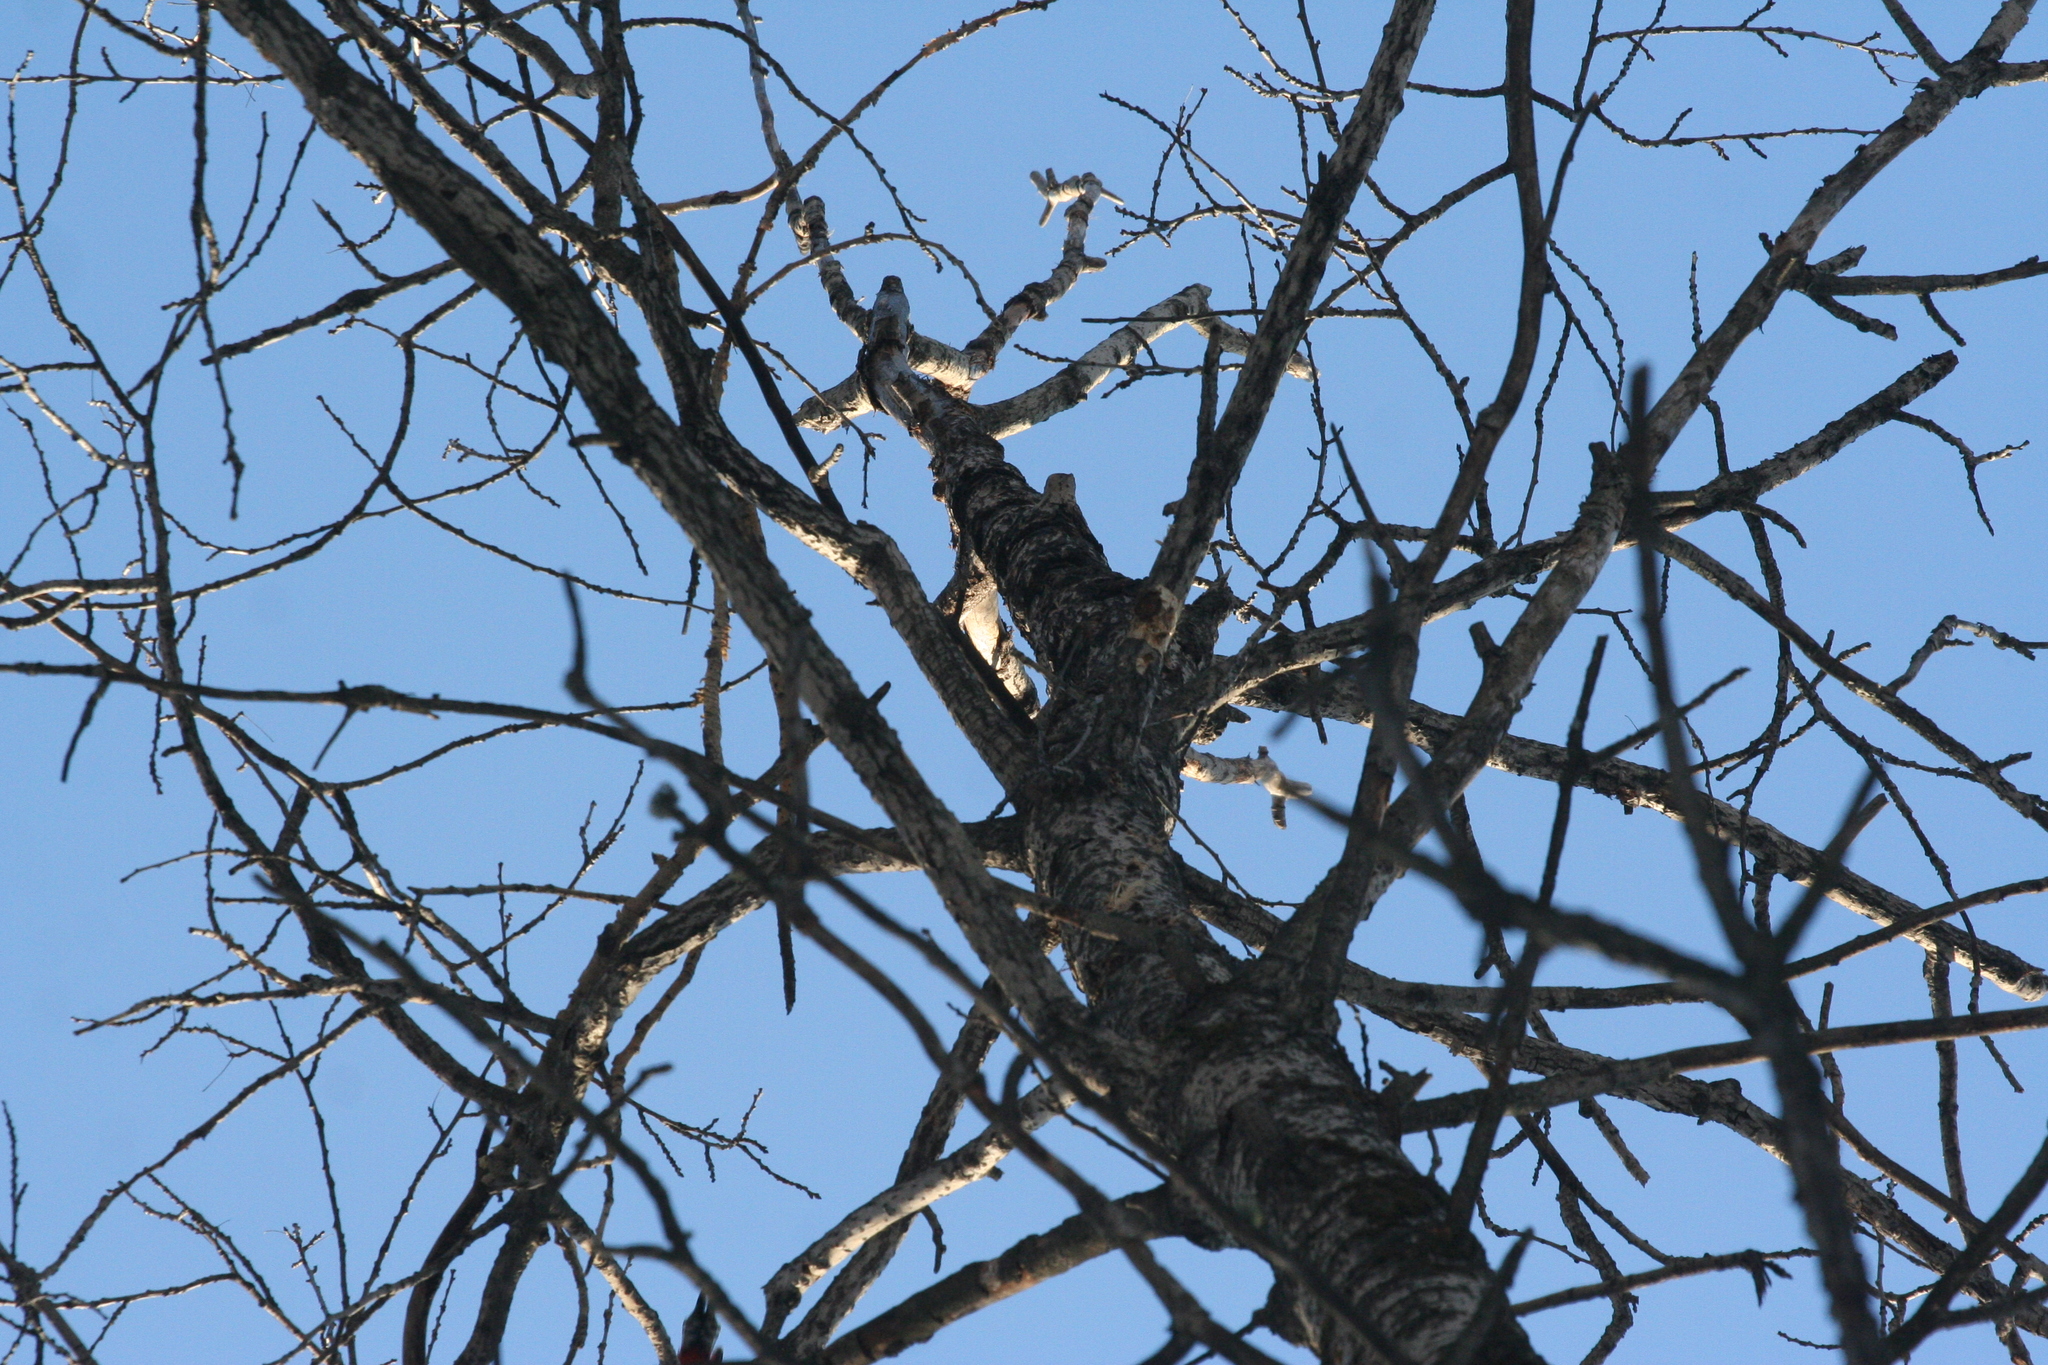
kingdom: Plantae
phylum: Tracheophyta
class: Magnoliopsida
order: Malpighiales
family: Salicaceae
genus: Populus
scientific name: Populus tremula
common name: European aspen
